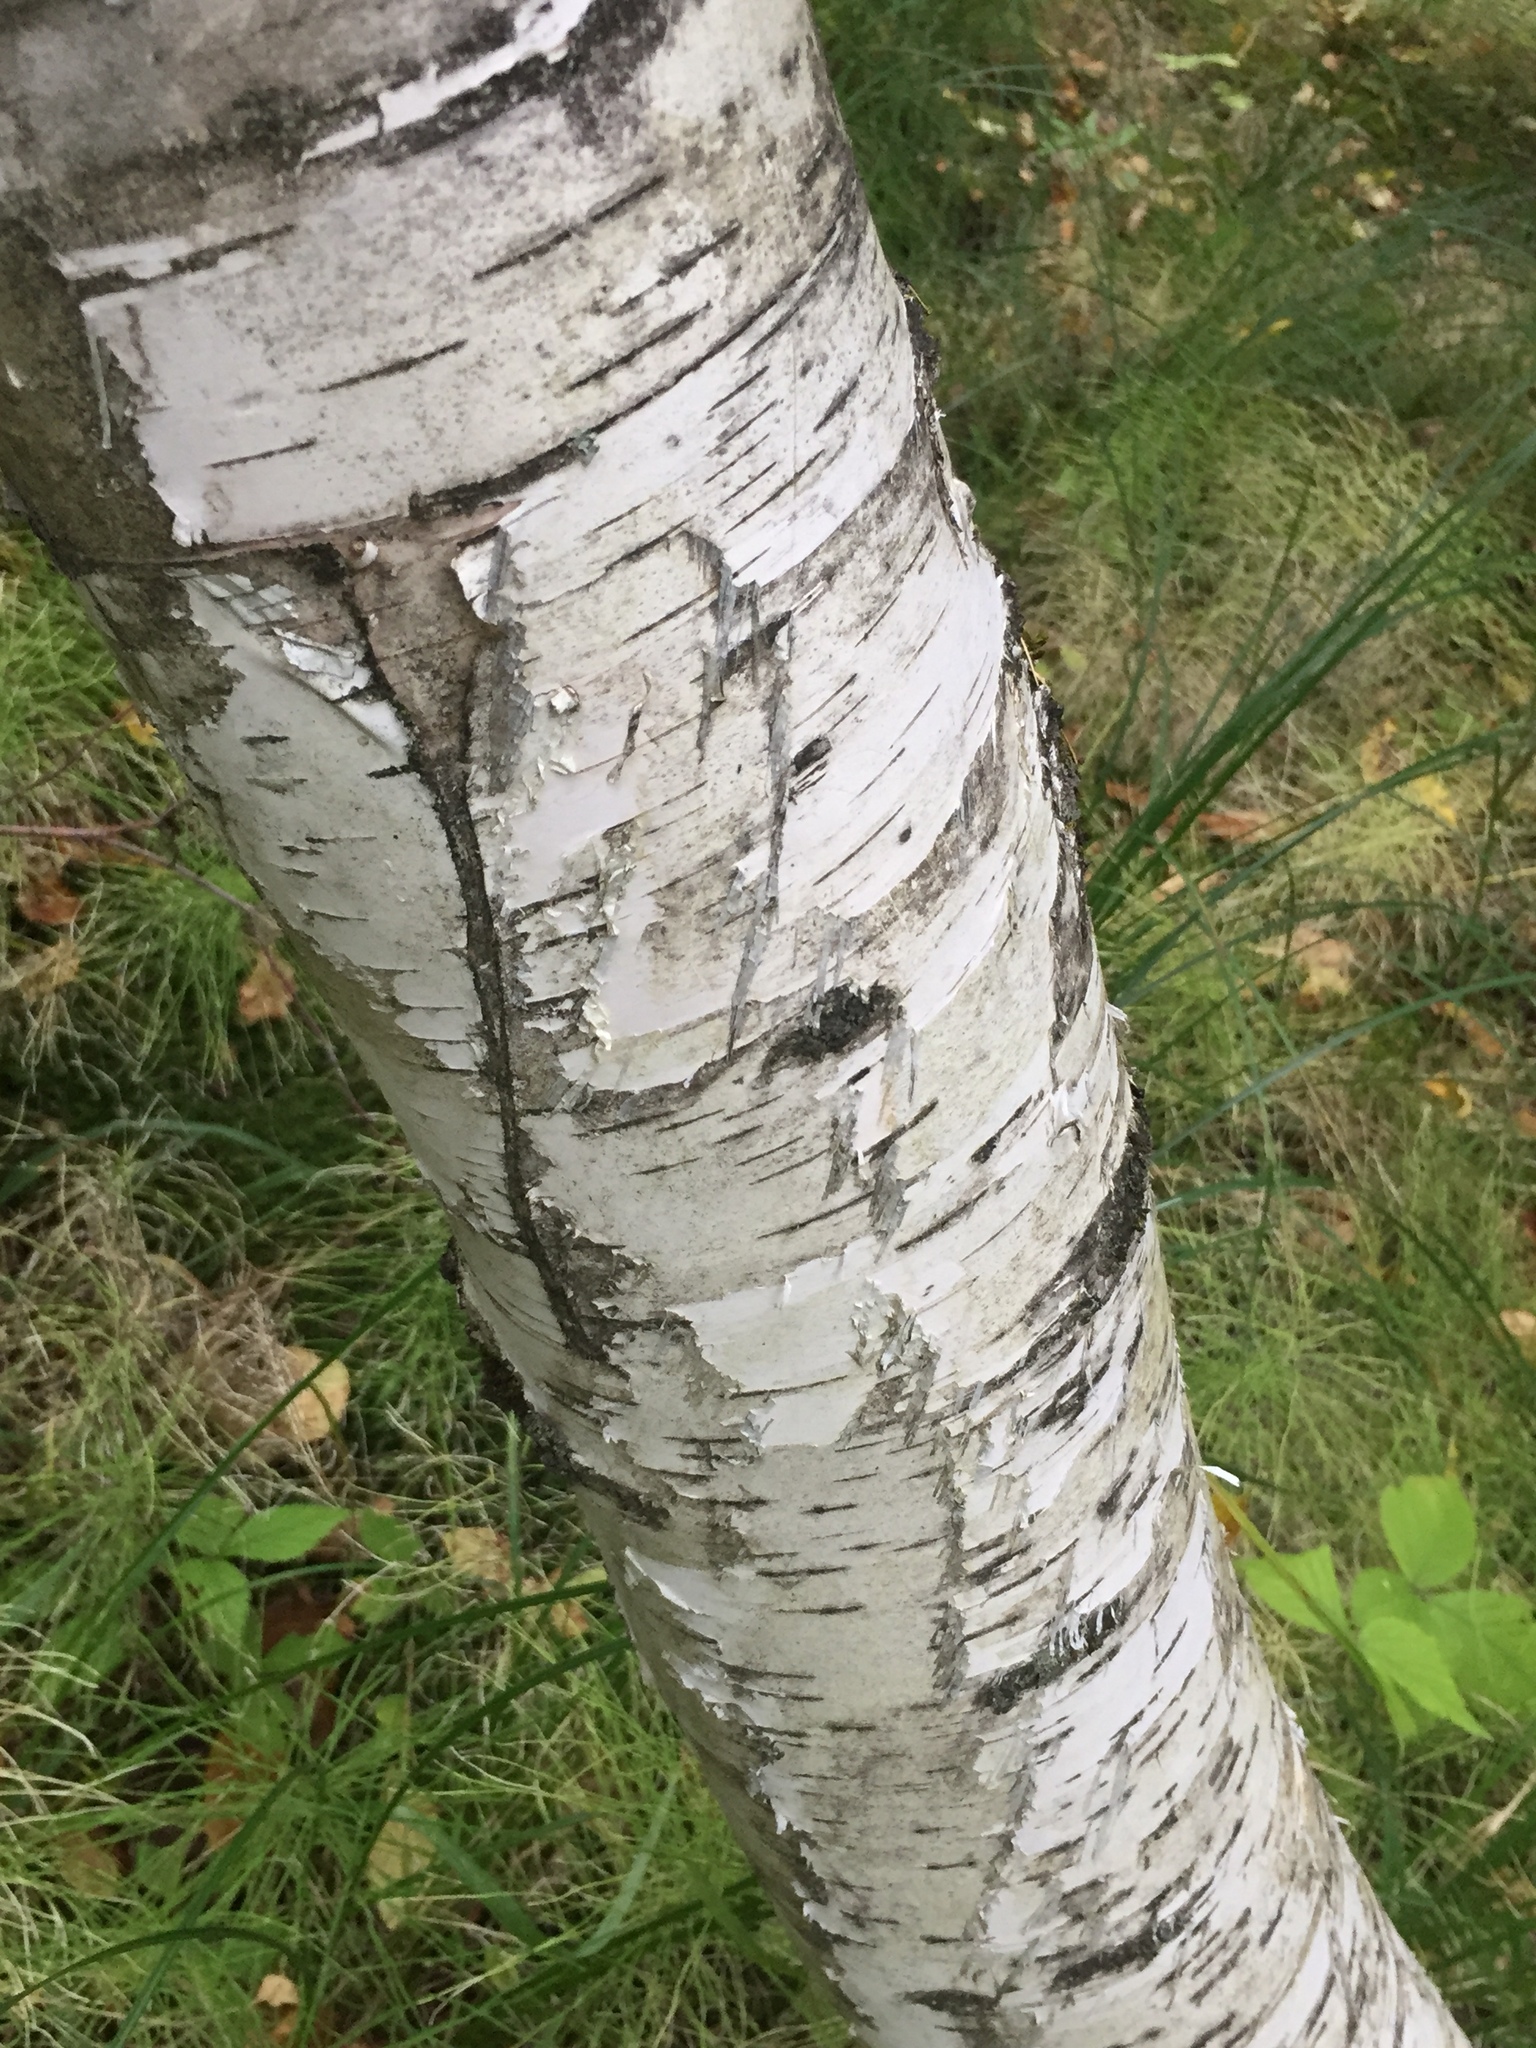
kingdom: Plantae
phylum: Tracheophyta
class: Magnoliopsida
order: Fagales
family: Betulaceae
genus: Betula
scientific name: Betula papyrifera
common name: Paper birch
